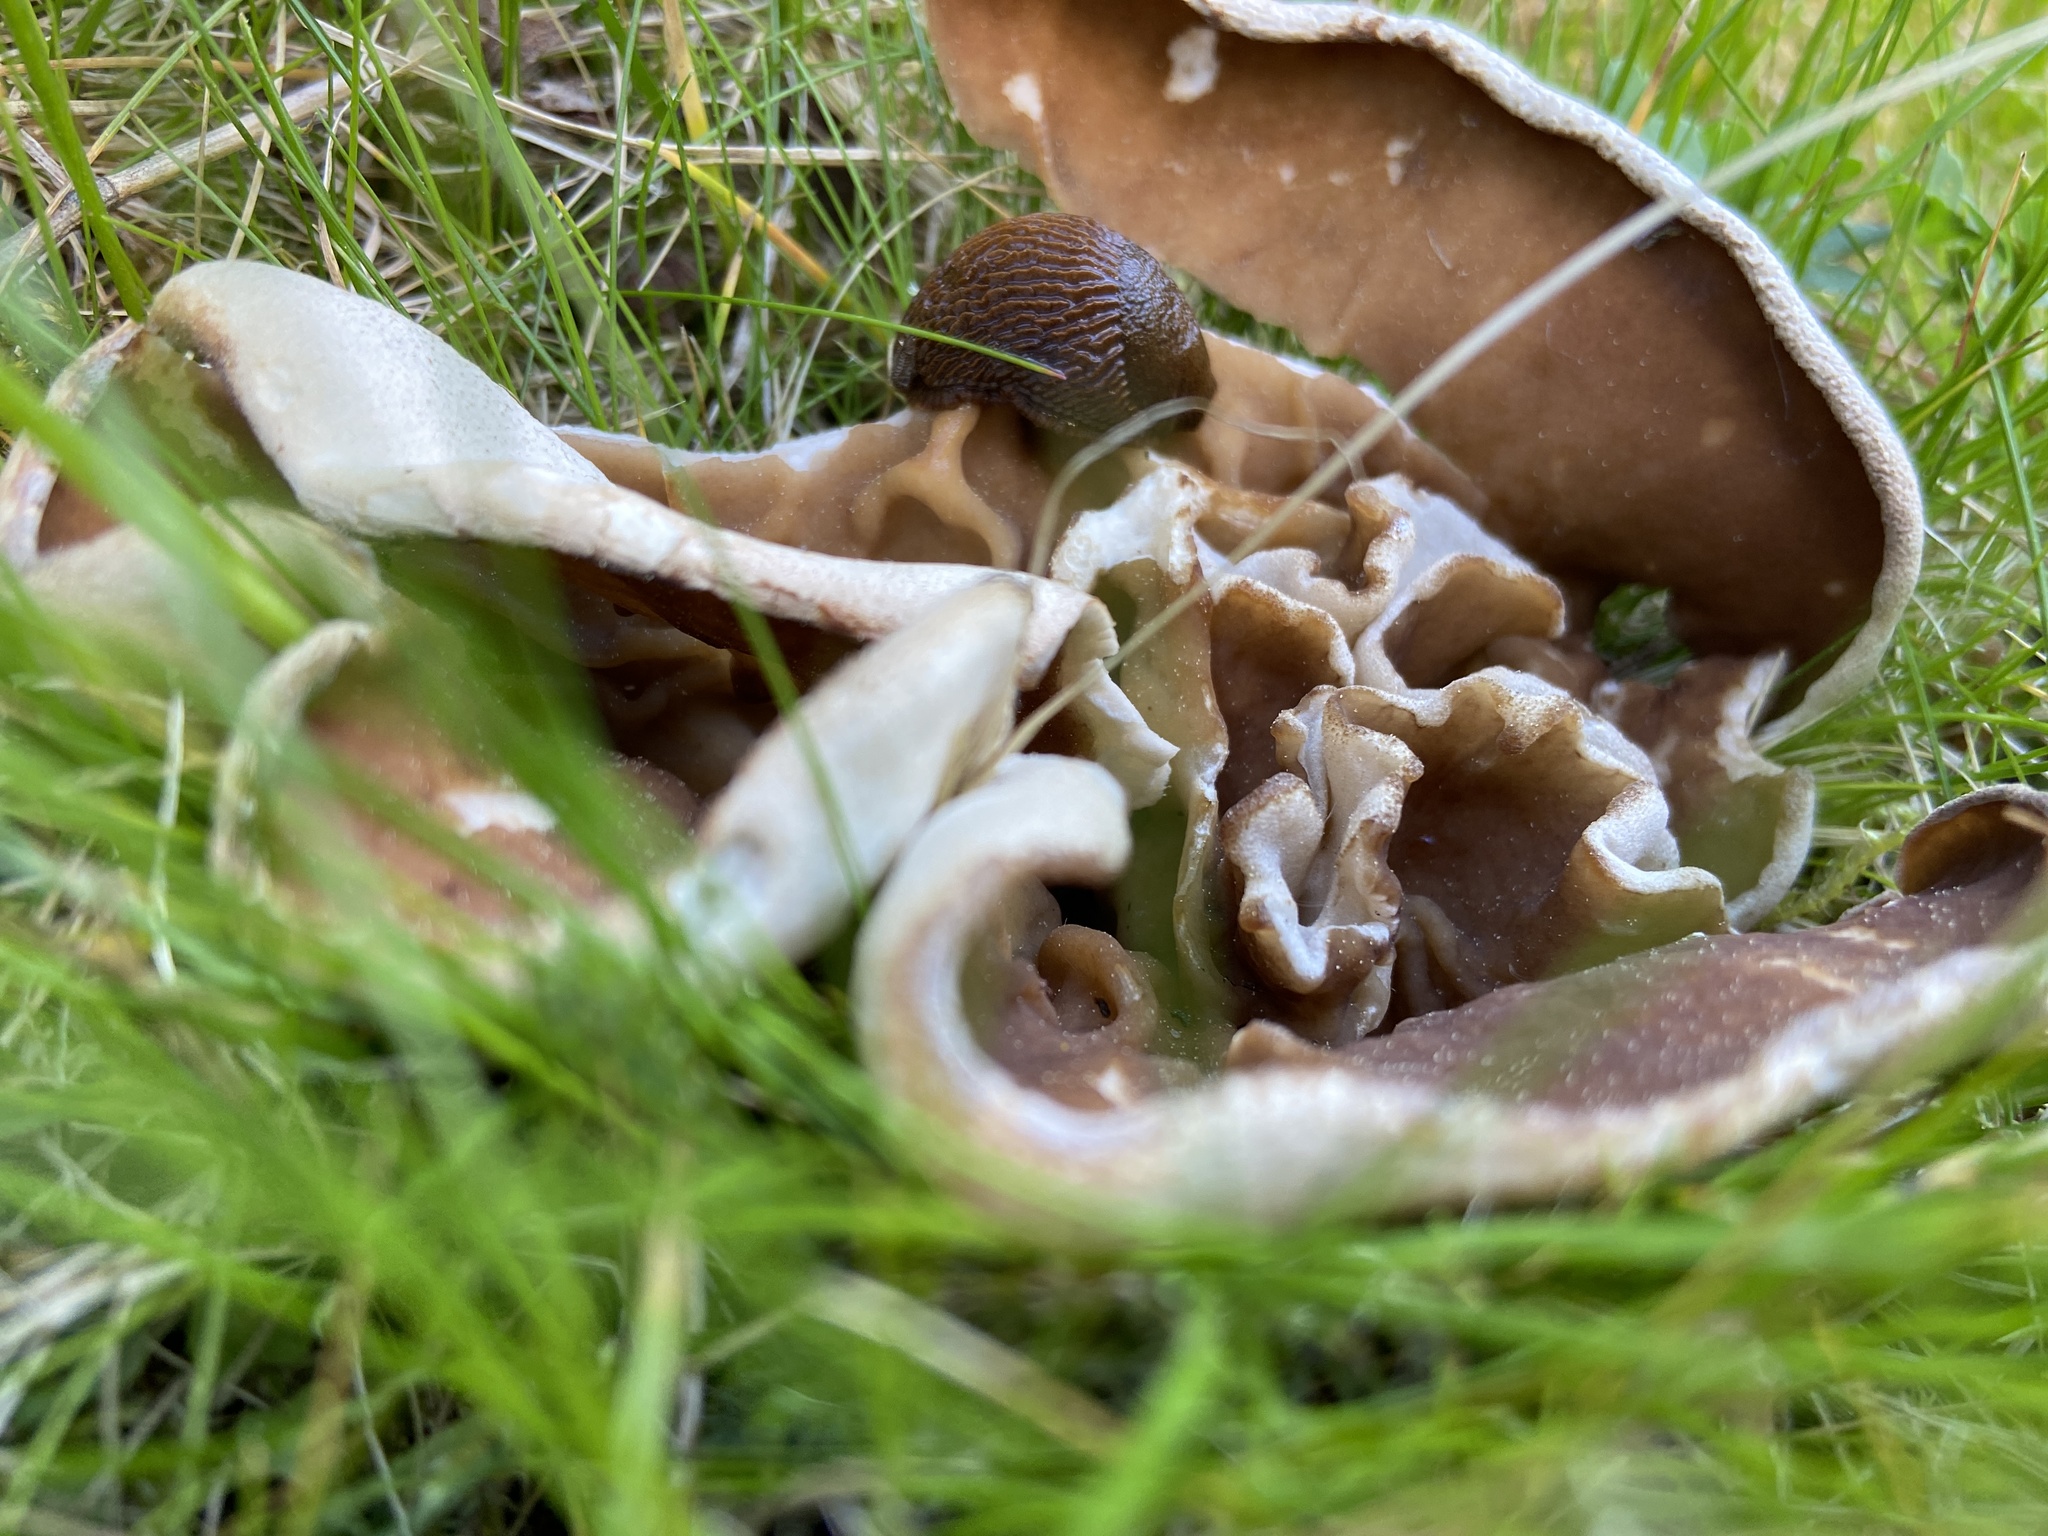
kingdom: Fungi
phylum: Ascomycota
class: Pezizomycetes
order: Pezizales
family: Morchellaceae
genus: Disciotis
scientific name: Disciotis venosa
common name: Bleach cup
